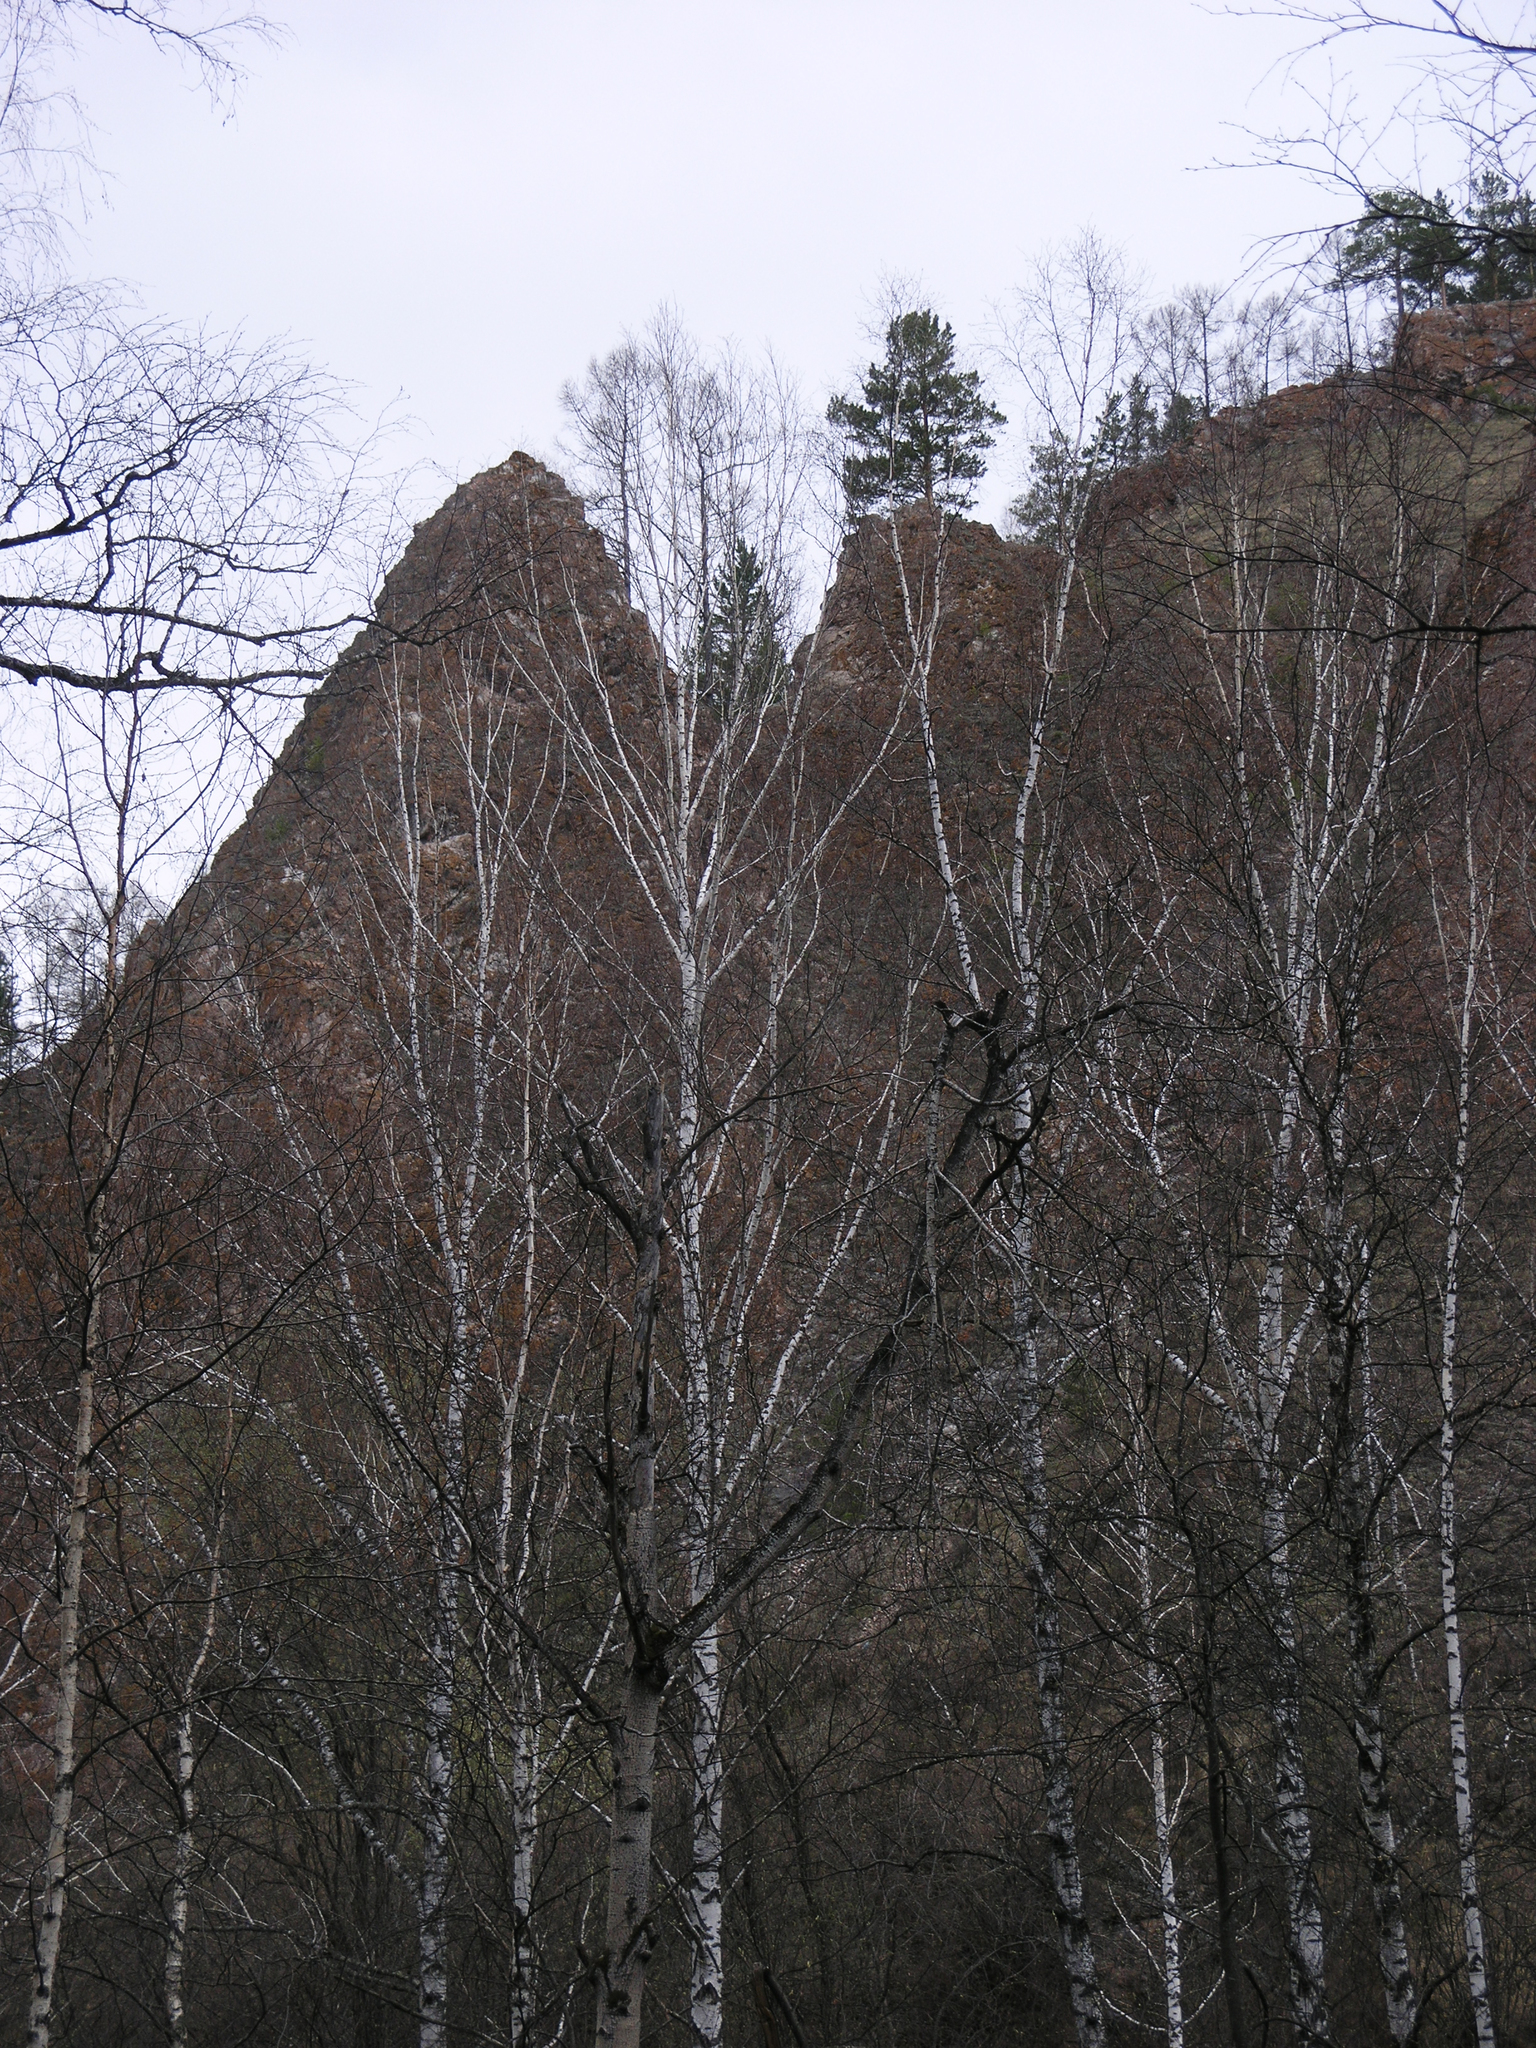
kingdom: Plantae
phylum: Tracheophyta
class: Magnoliopsida
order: Fagales
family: Betulaceae
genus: Betula
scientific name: Betula pendula
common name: Silver birch
